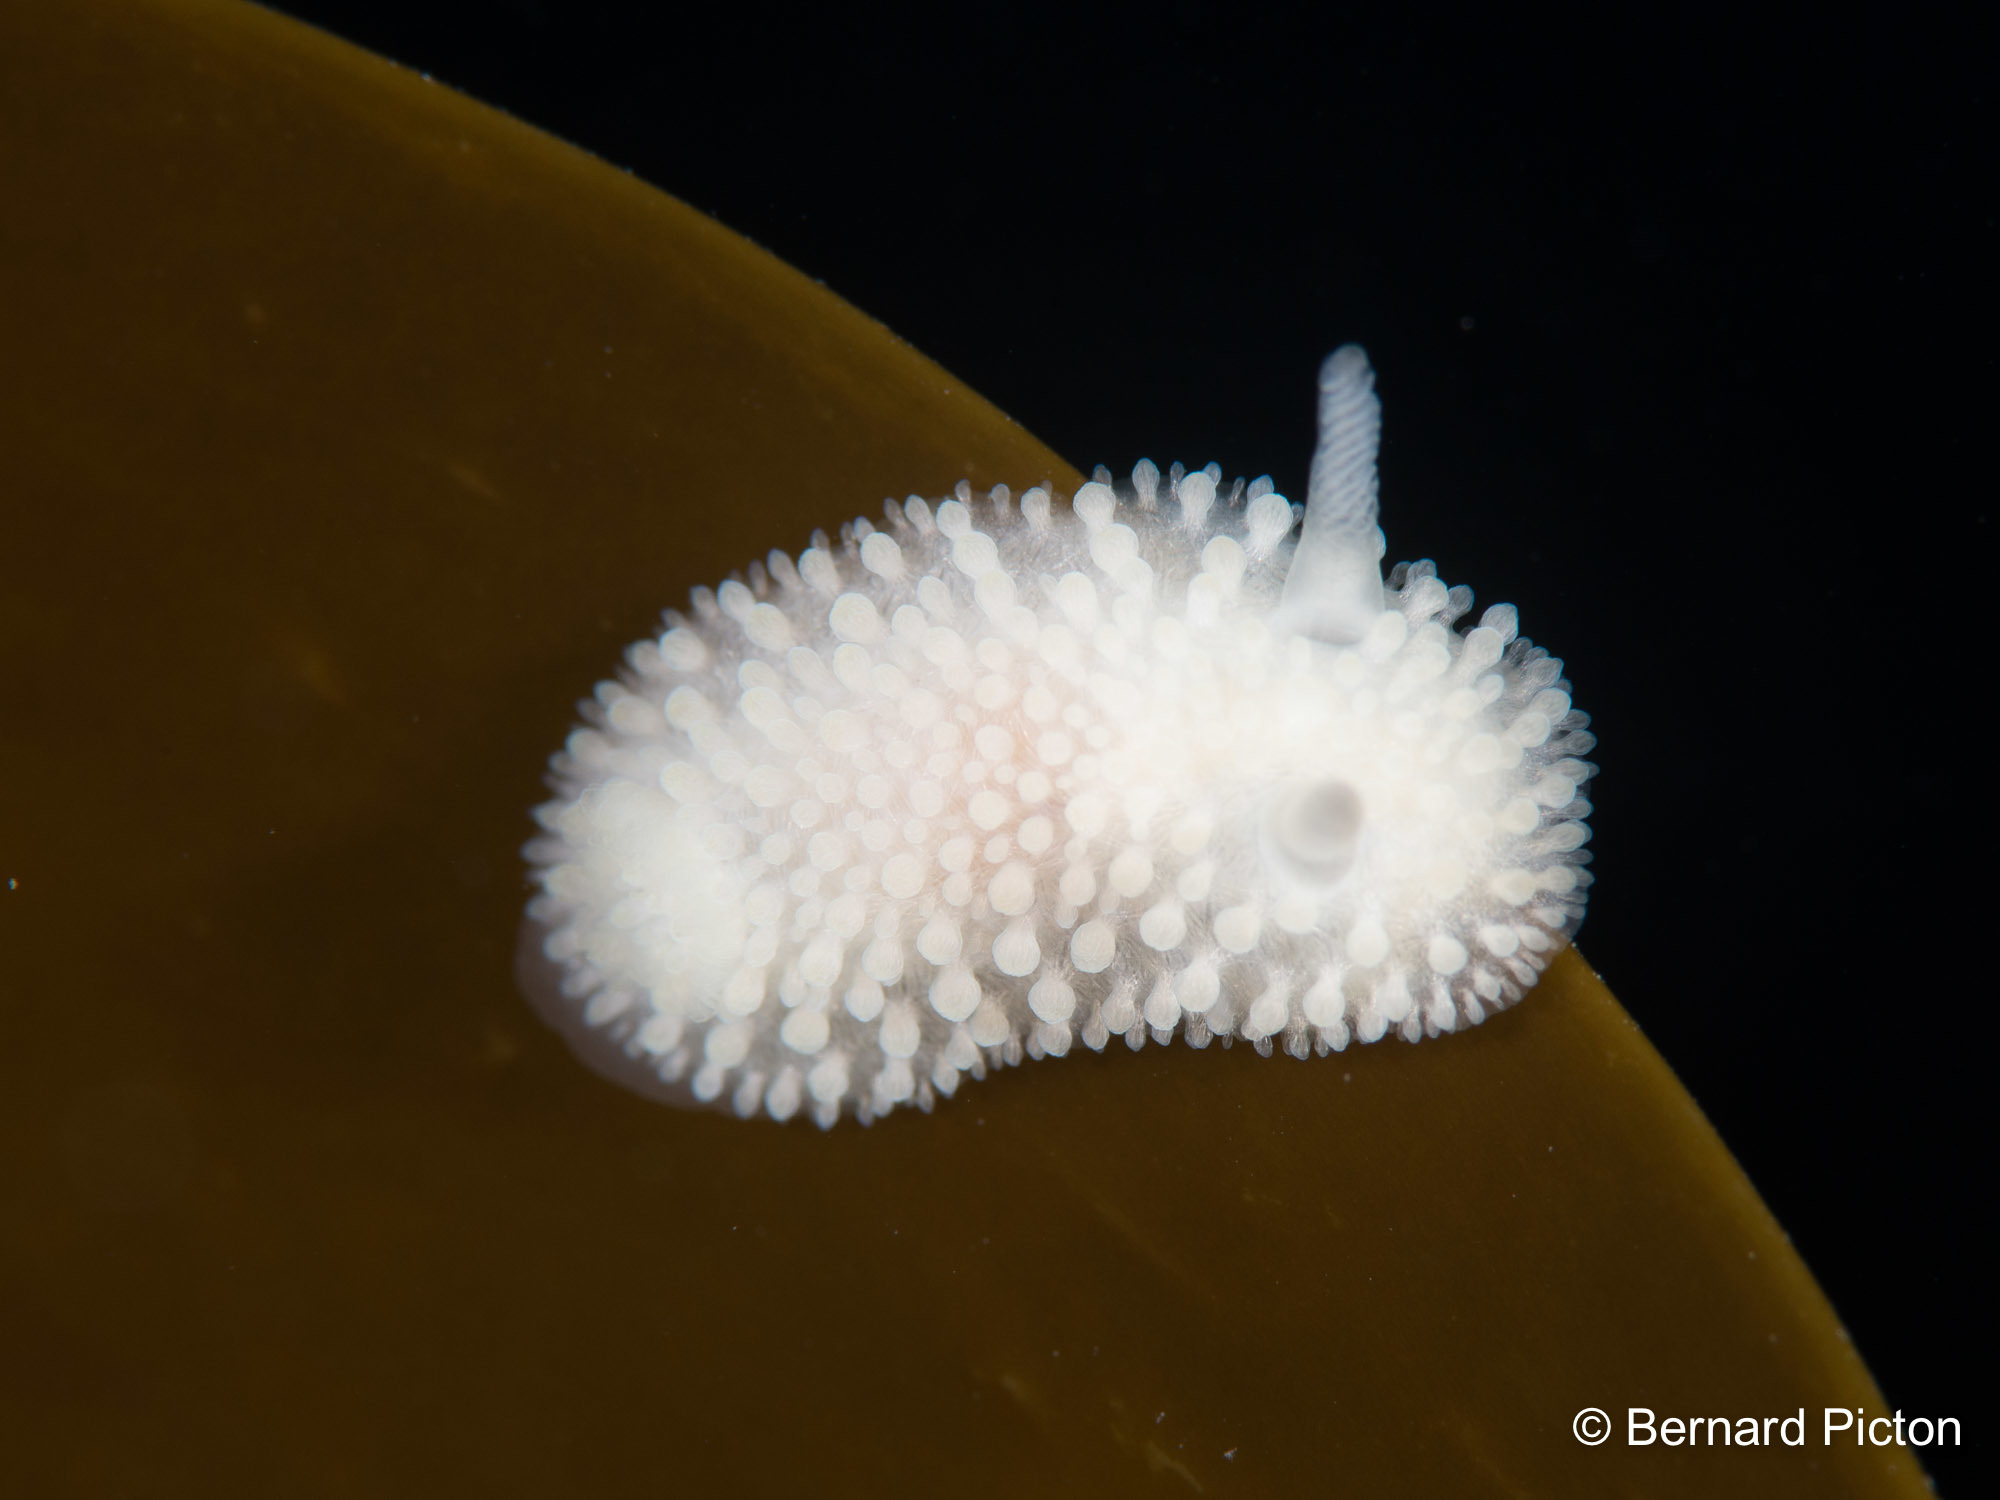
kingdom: Animalia
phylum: Mollusca
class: Gastropoda
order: Nudibranchia
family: Onchidorididae
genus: Onchidoris
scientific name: Onchidoris muricata
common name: Rough doris
